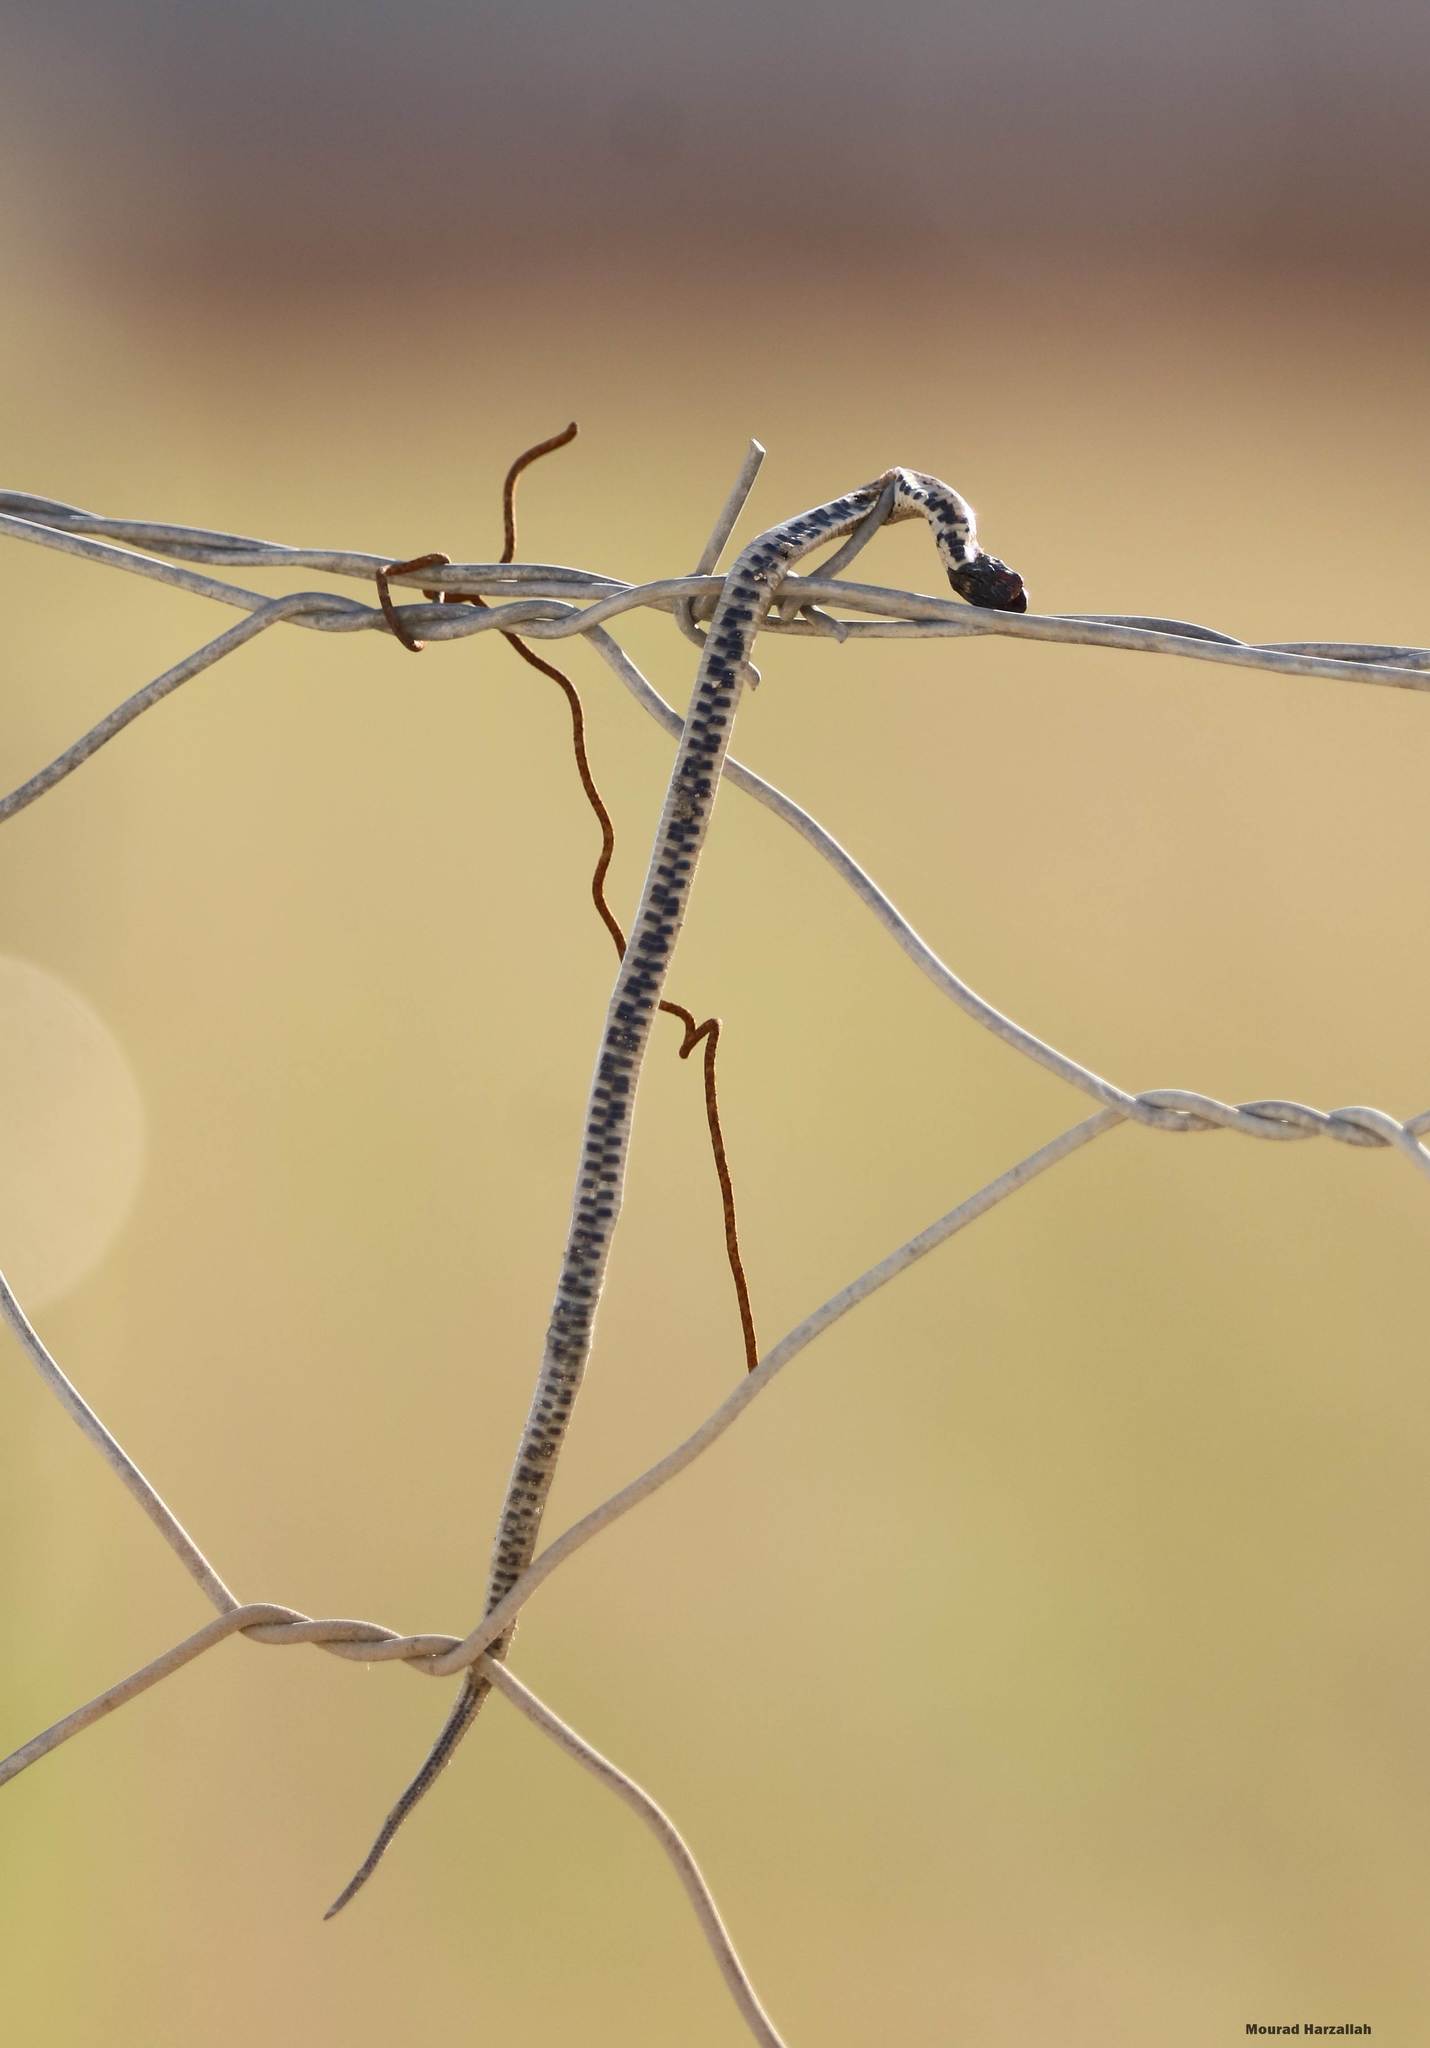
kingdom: Animalia
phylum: Chordata
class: Squamata
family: Colubridae
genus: Macroprotodon
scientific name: Macroprotodon mauritanicus
